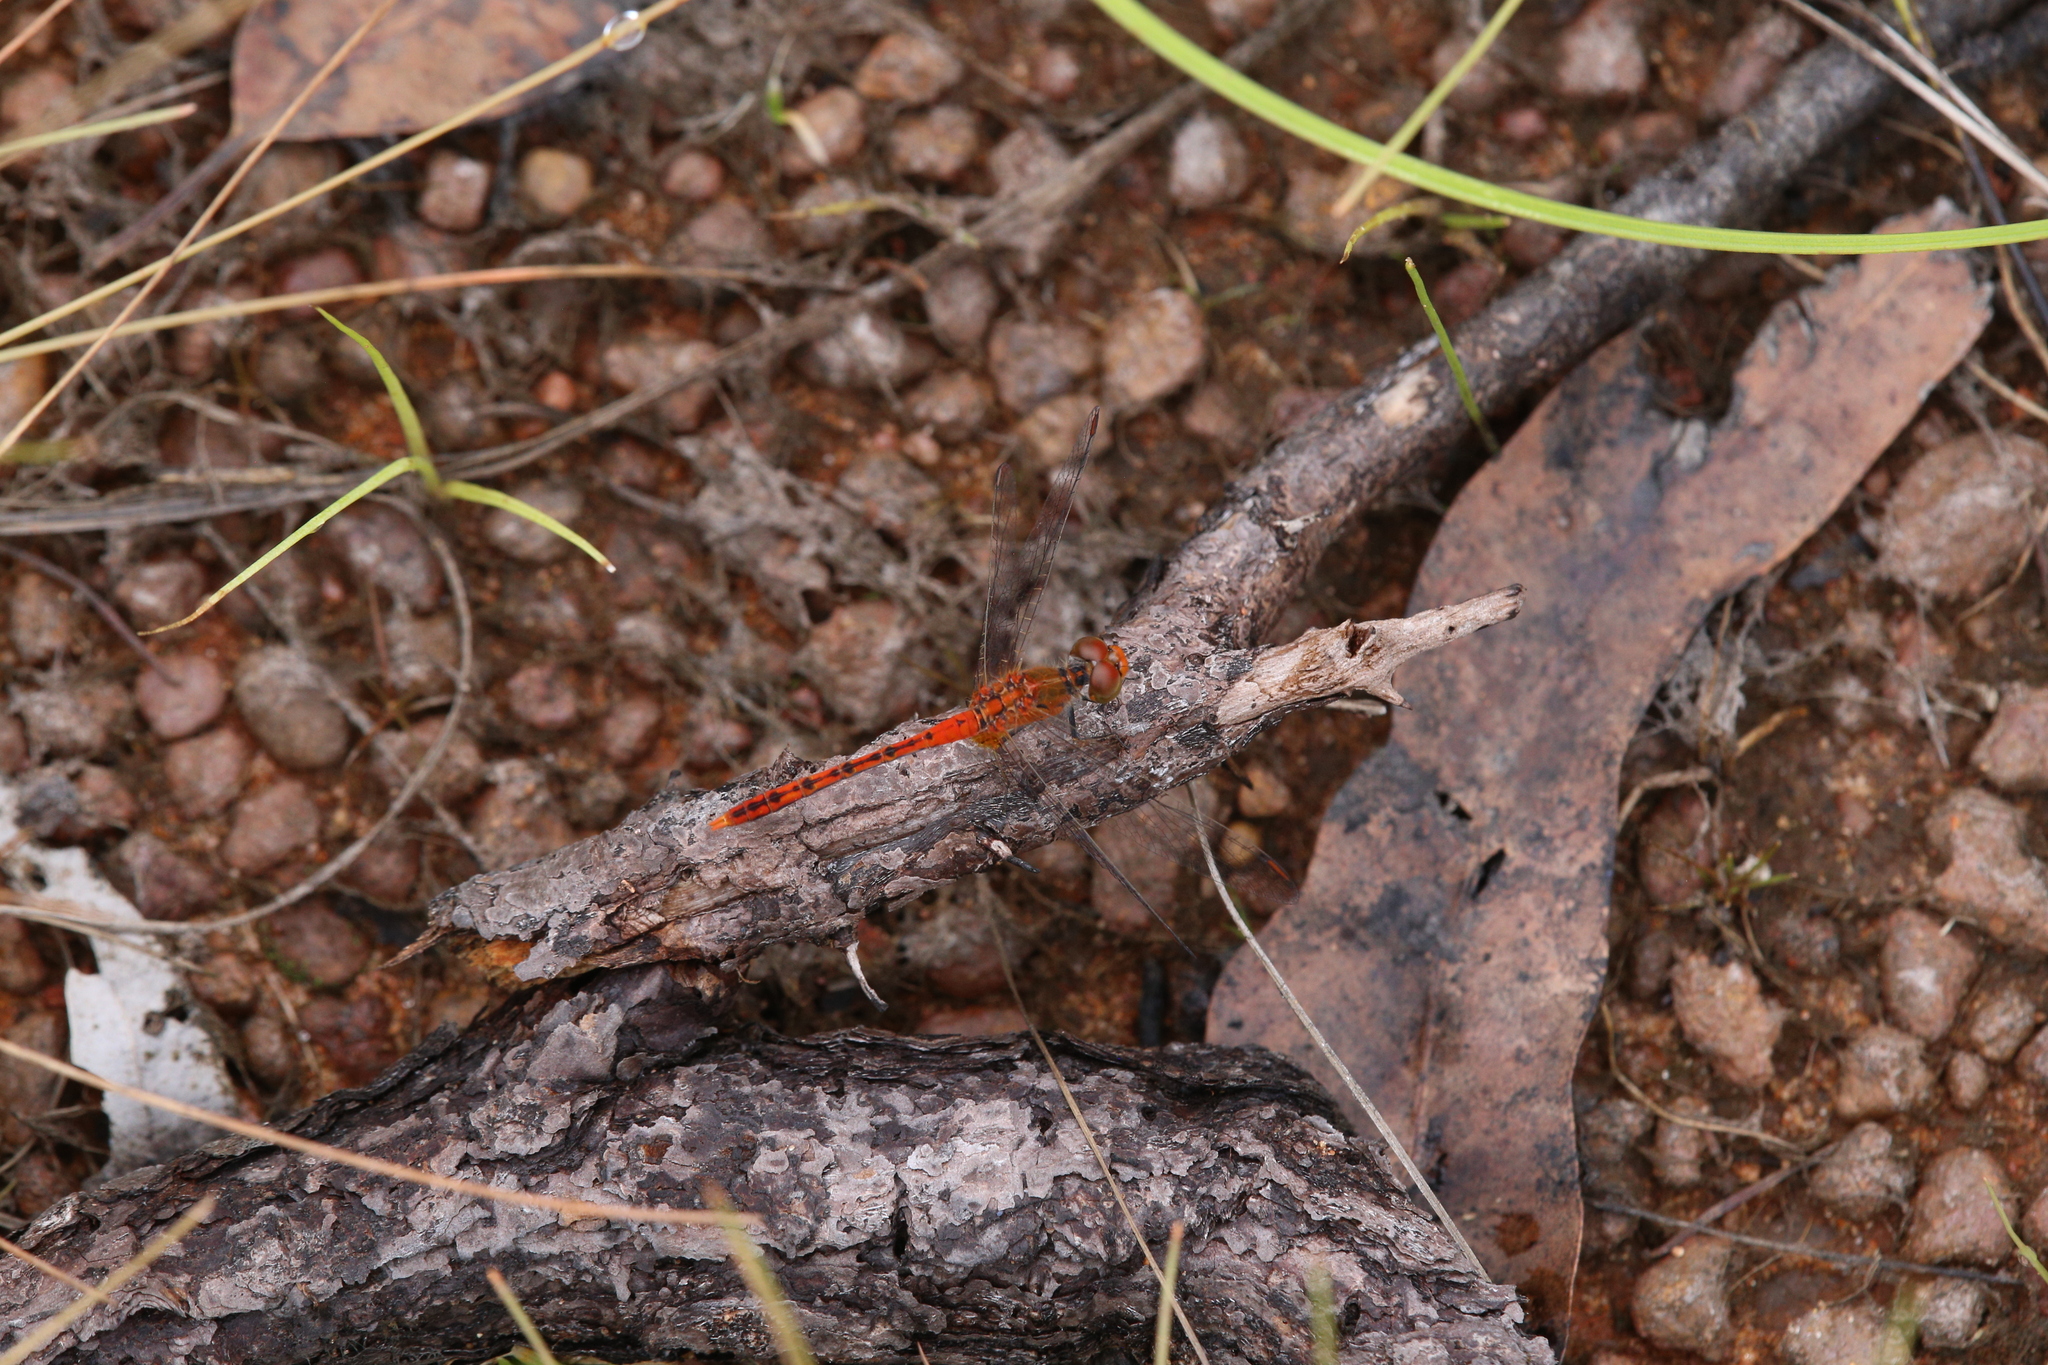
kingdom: Animalia
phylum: Arthropoda
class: Insecta
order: Odonata
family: Libellulidae
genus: Diplacodes
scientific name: Diplacodes bipunctata
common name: Red percher dragonfly
